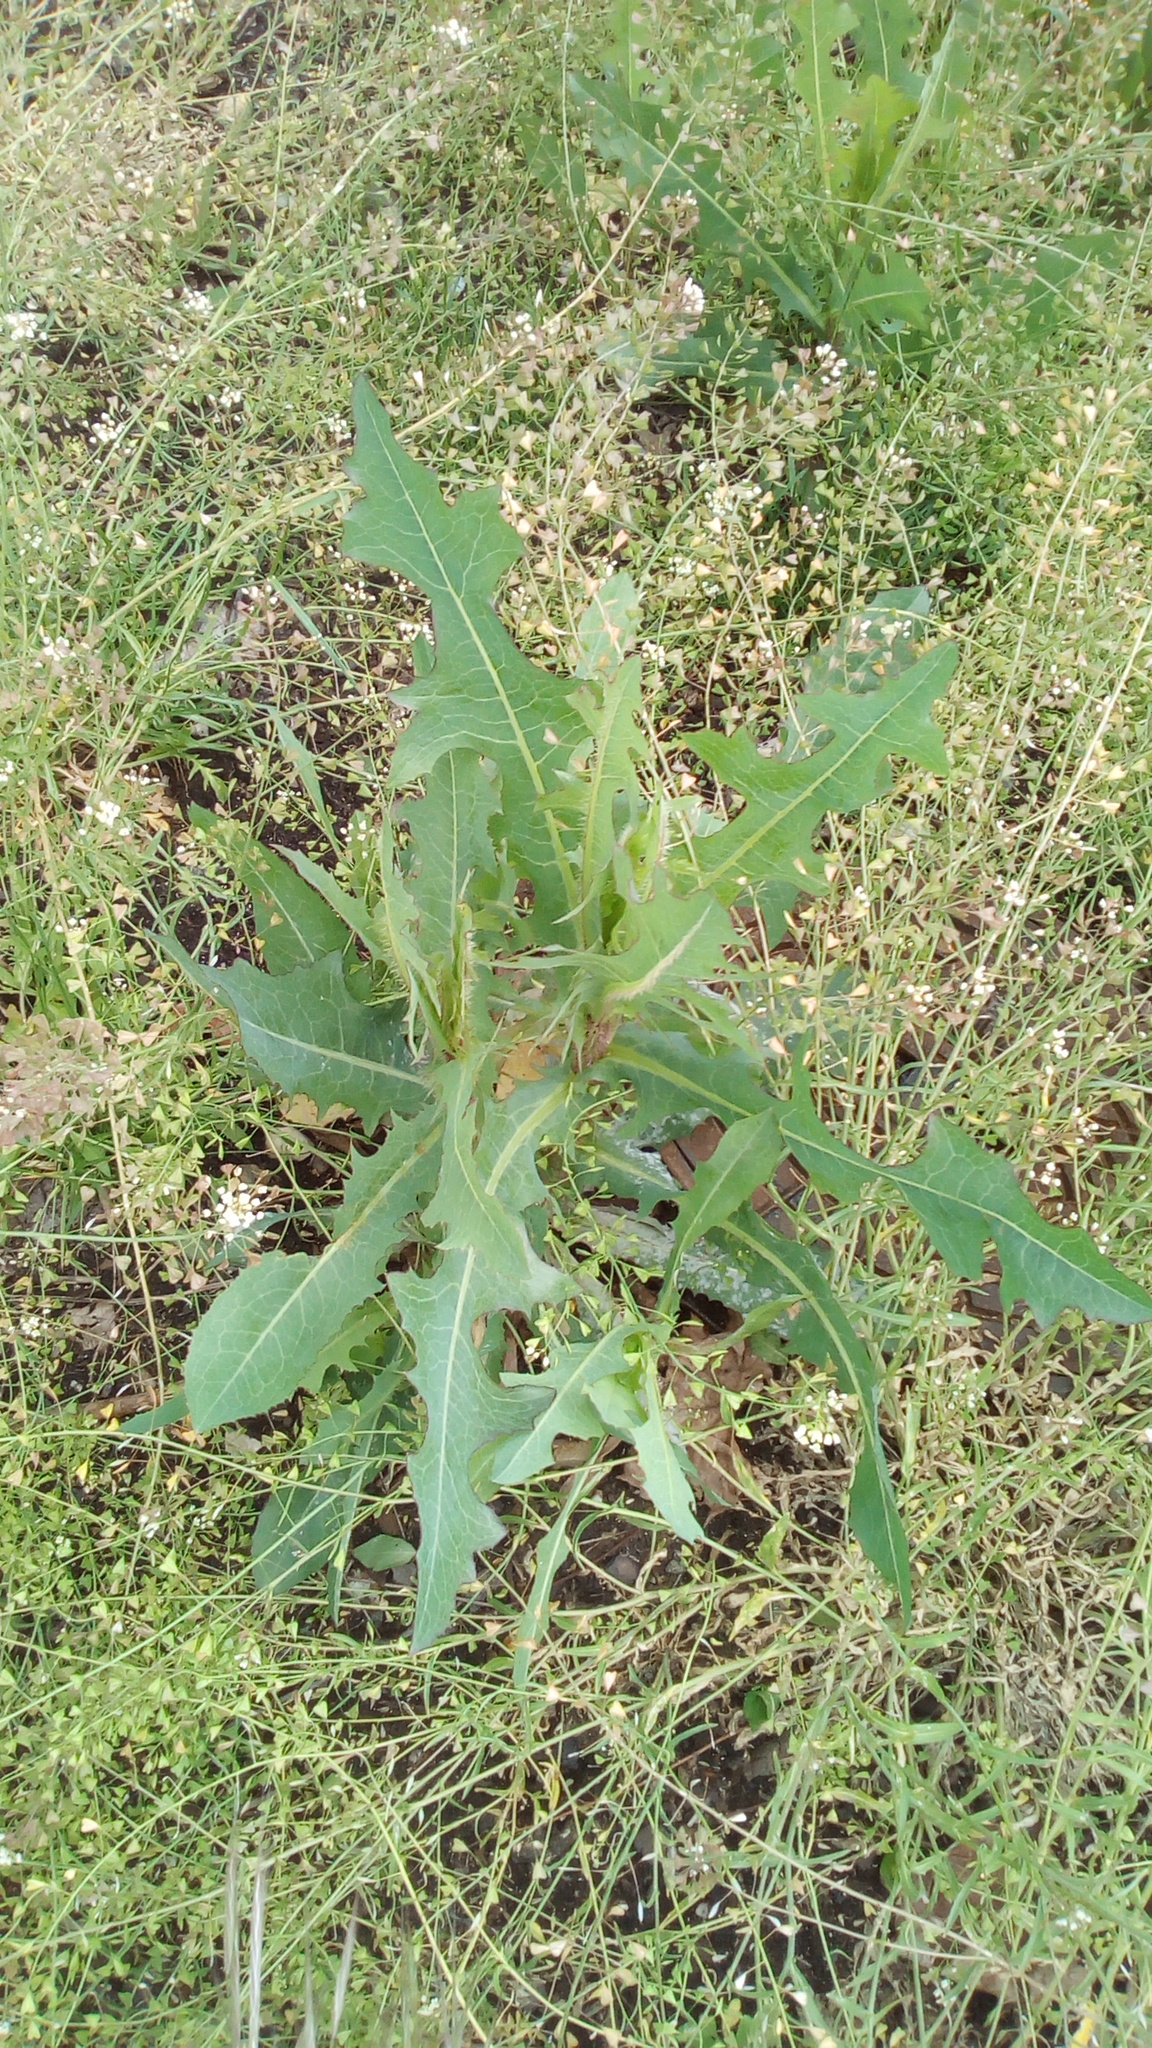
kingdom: Plantae
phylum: Tracheophyta
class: Magnoliopsida
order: Asterales
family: Asteraceae
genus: Lactuca
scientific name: Lactuca serriola
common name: Prickly lettuce
